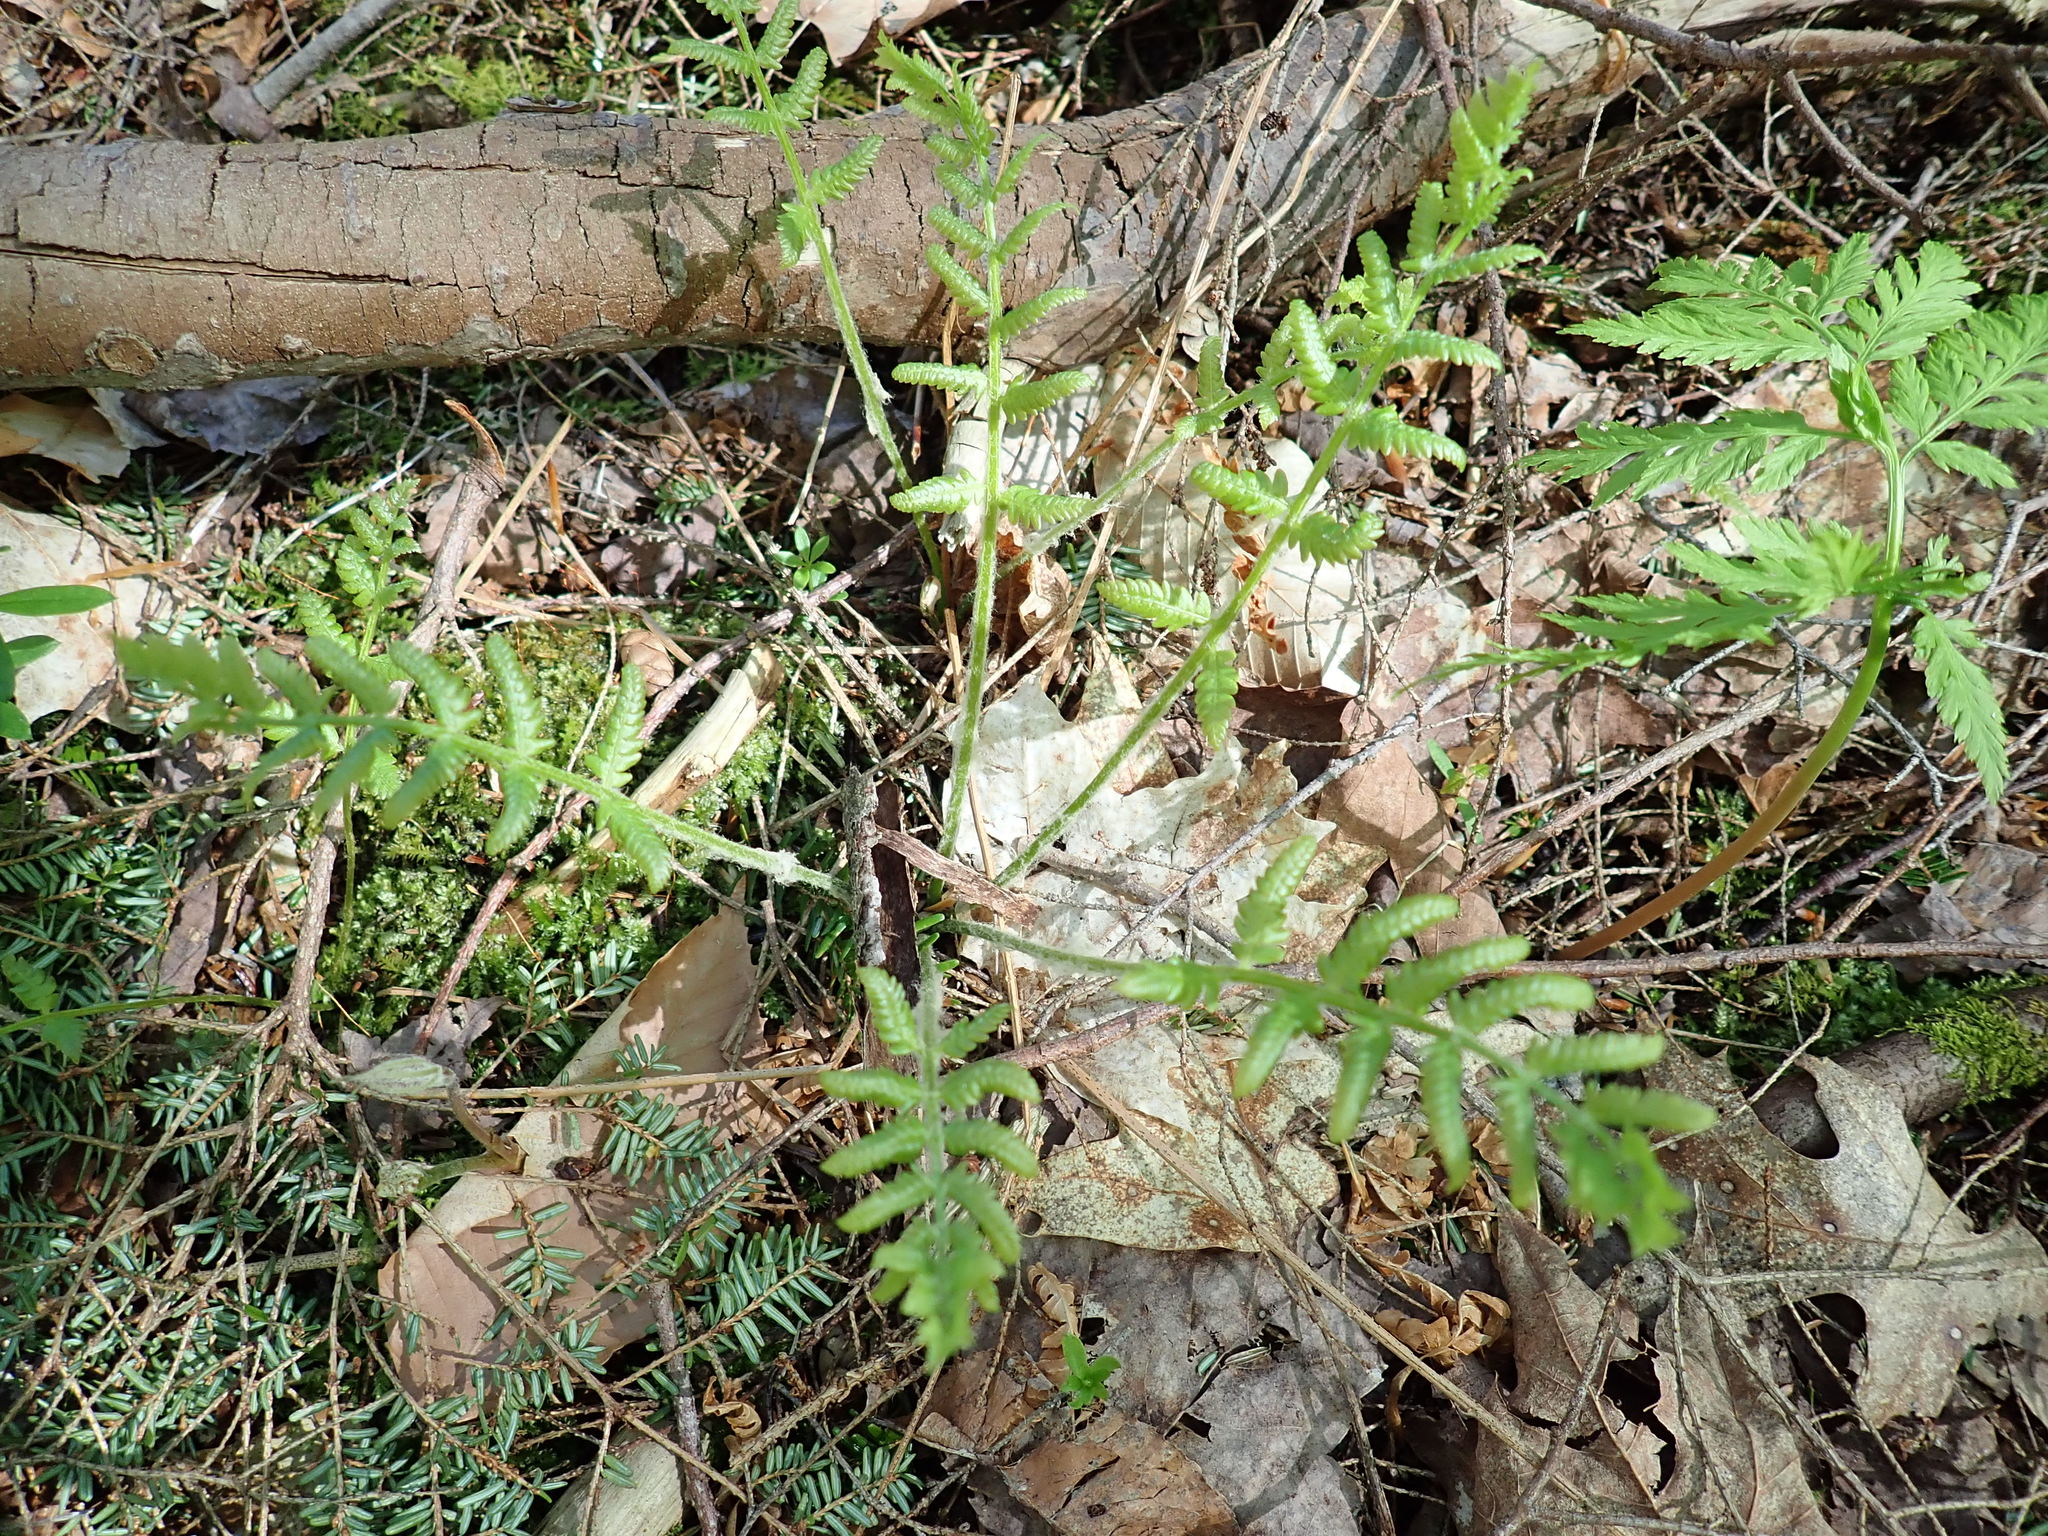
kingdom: Plantae
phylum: Tracheophyta
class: Polypodiopsida
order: Osmundales
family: Osmundaceae
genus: Osmundastrum
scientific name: Osmundastrum cinnamomeum
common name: Cinnamon fern
